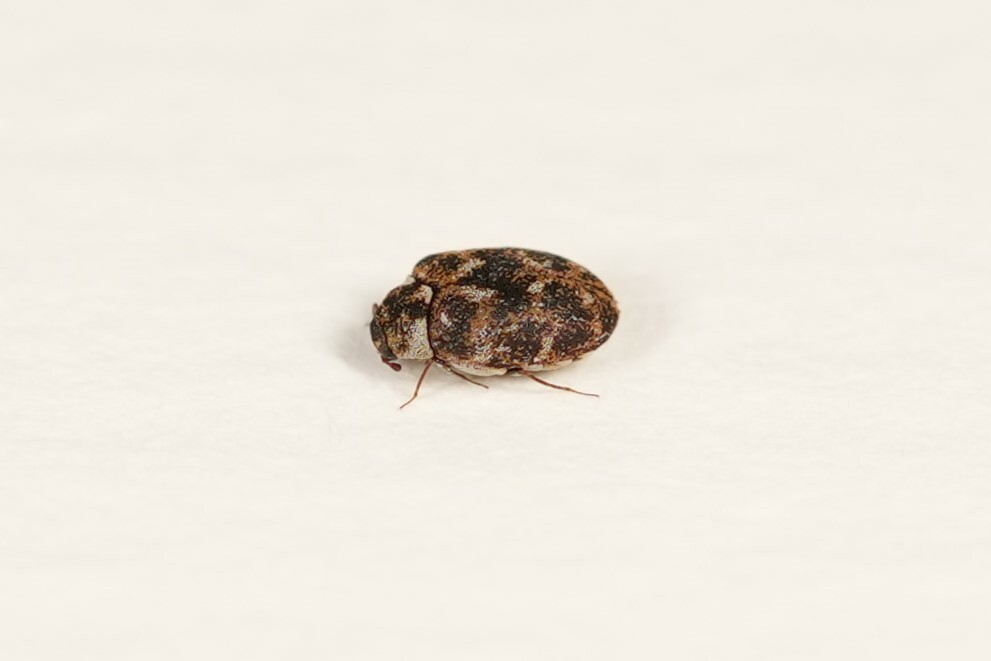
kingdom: Animalia
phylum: Arthropoda
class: Insecta
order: Coleoptera
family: Dermestidae
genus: Anthrenus
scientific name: Anthrenus museorum
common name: Museum beetle
